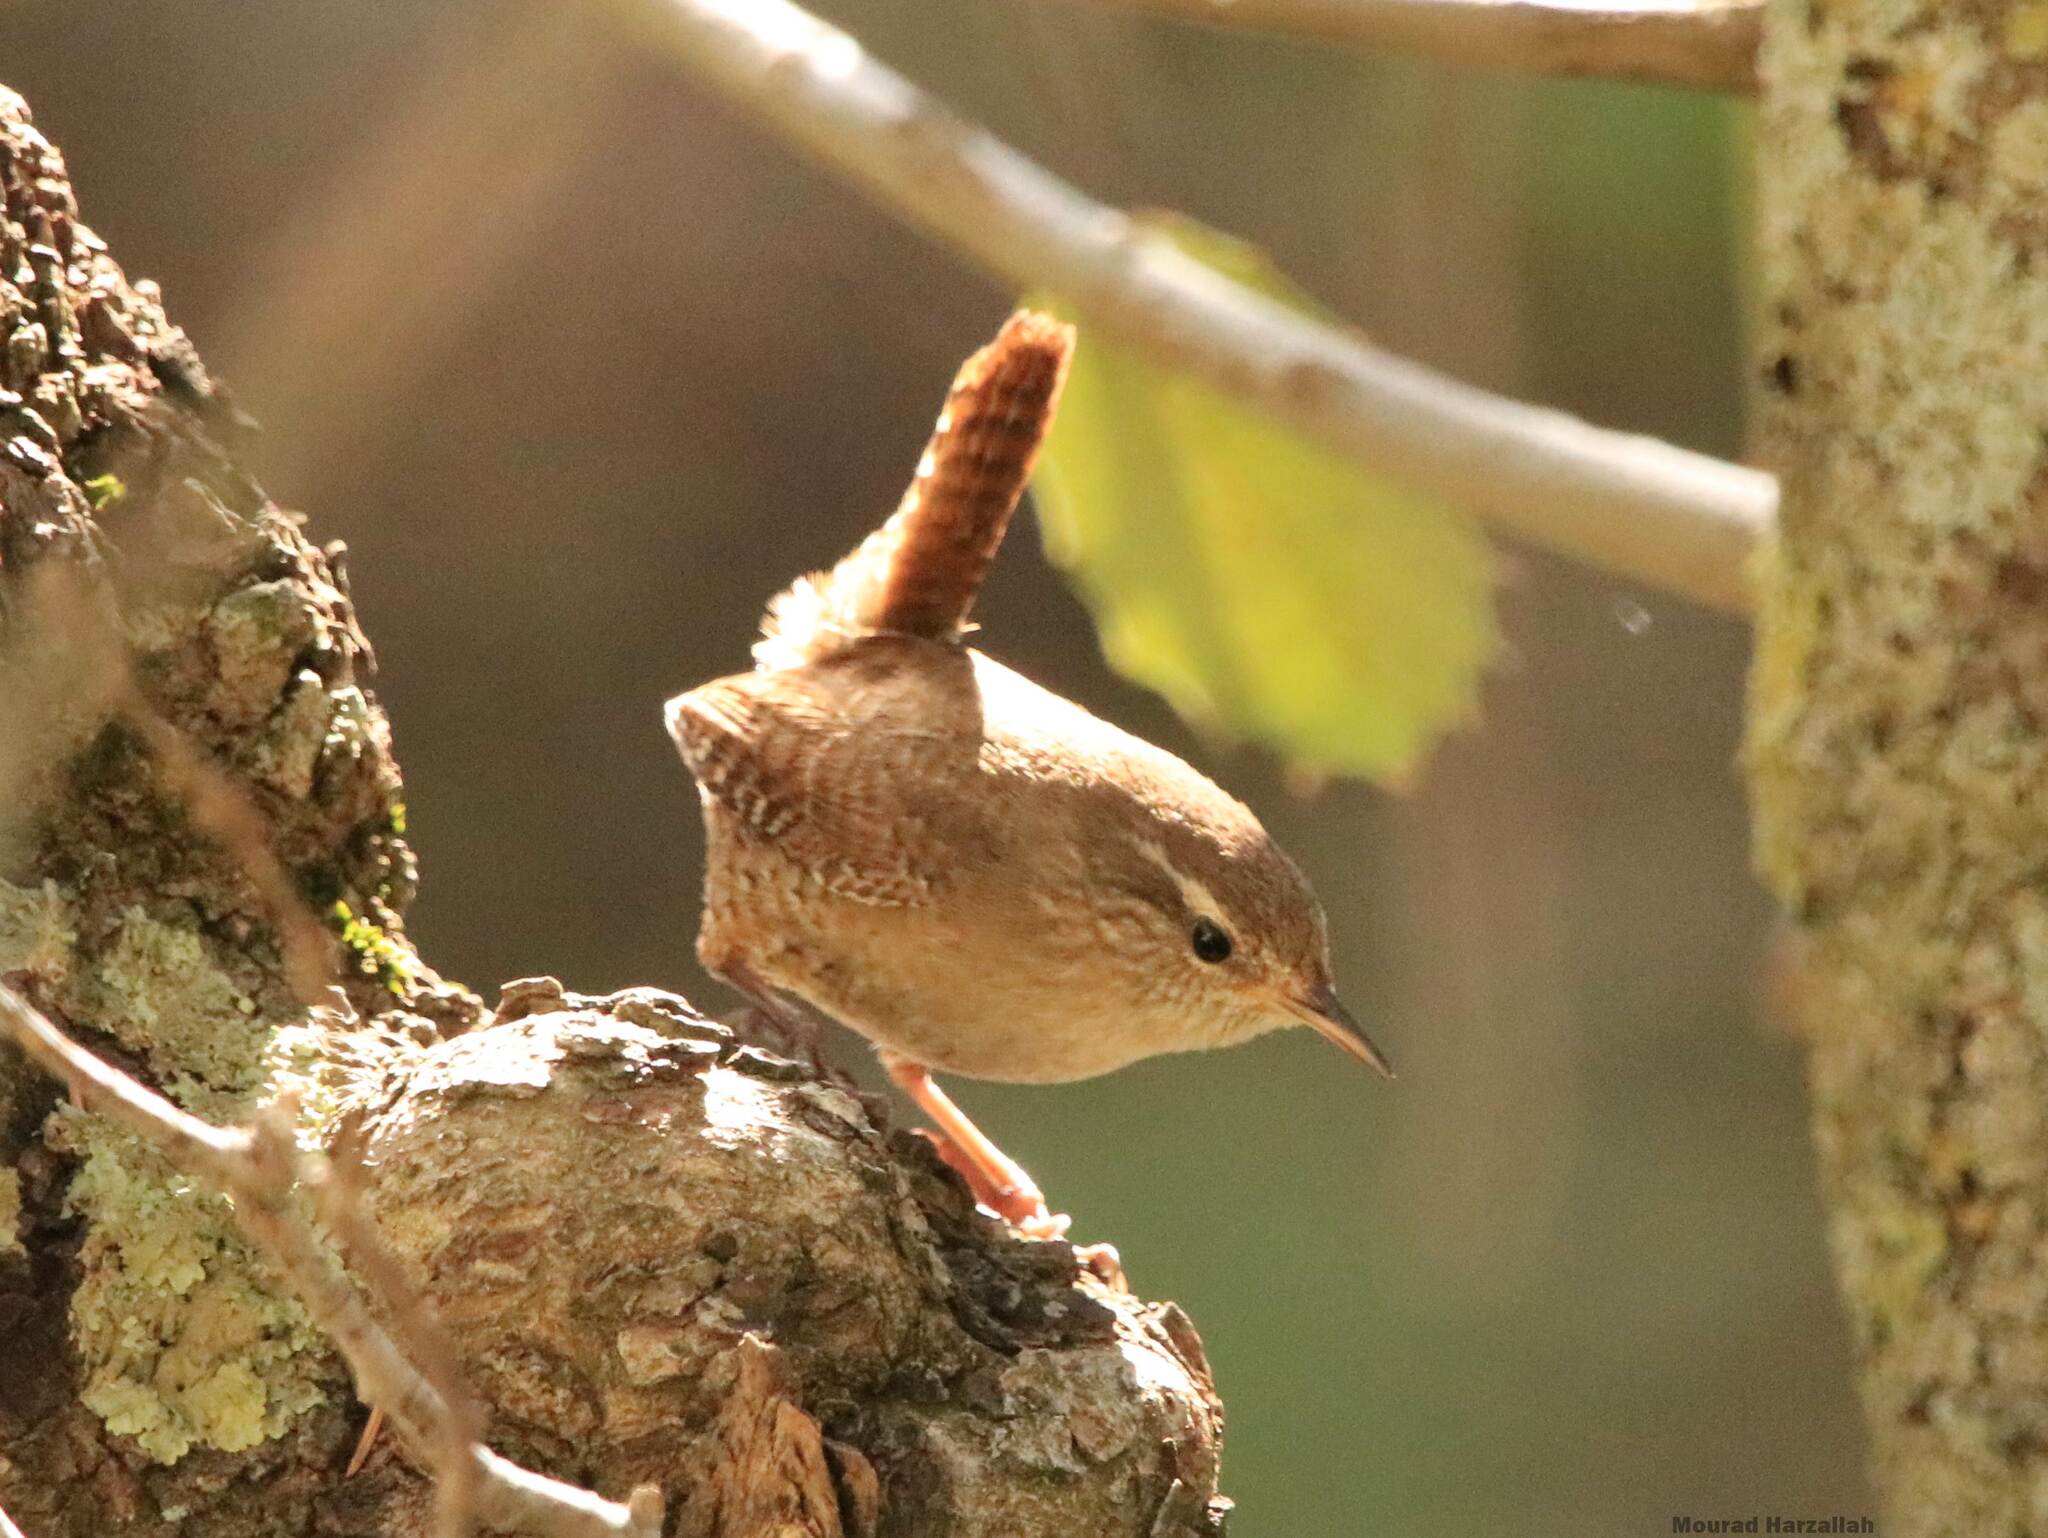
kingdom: Animalia
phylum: Chordata
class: Aves
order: Passeriformes
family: Troglodytidae
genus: Troglodytes
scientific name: Troglodytes troglodytes
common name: Eurasian wren
